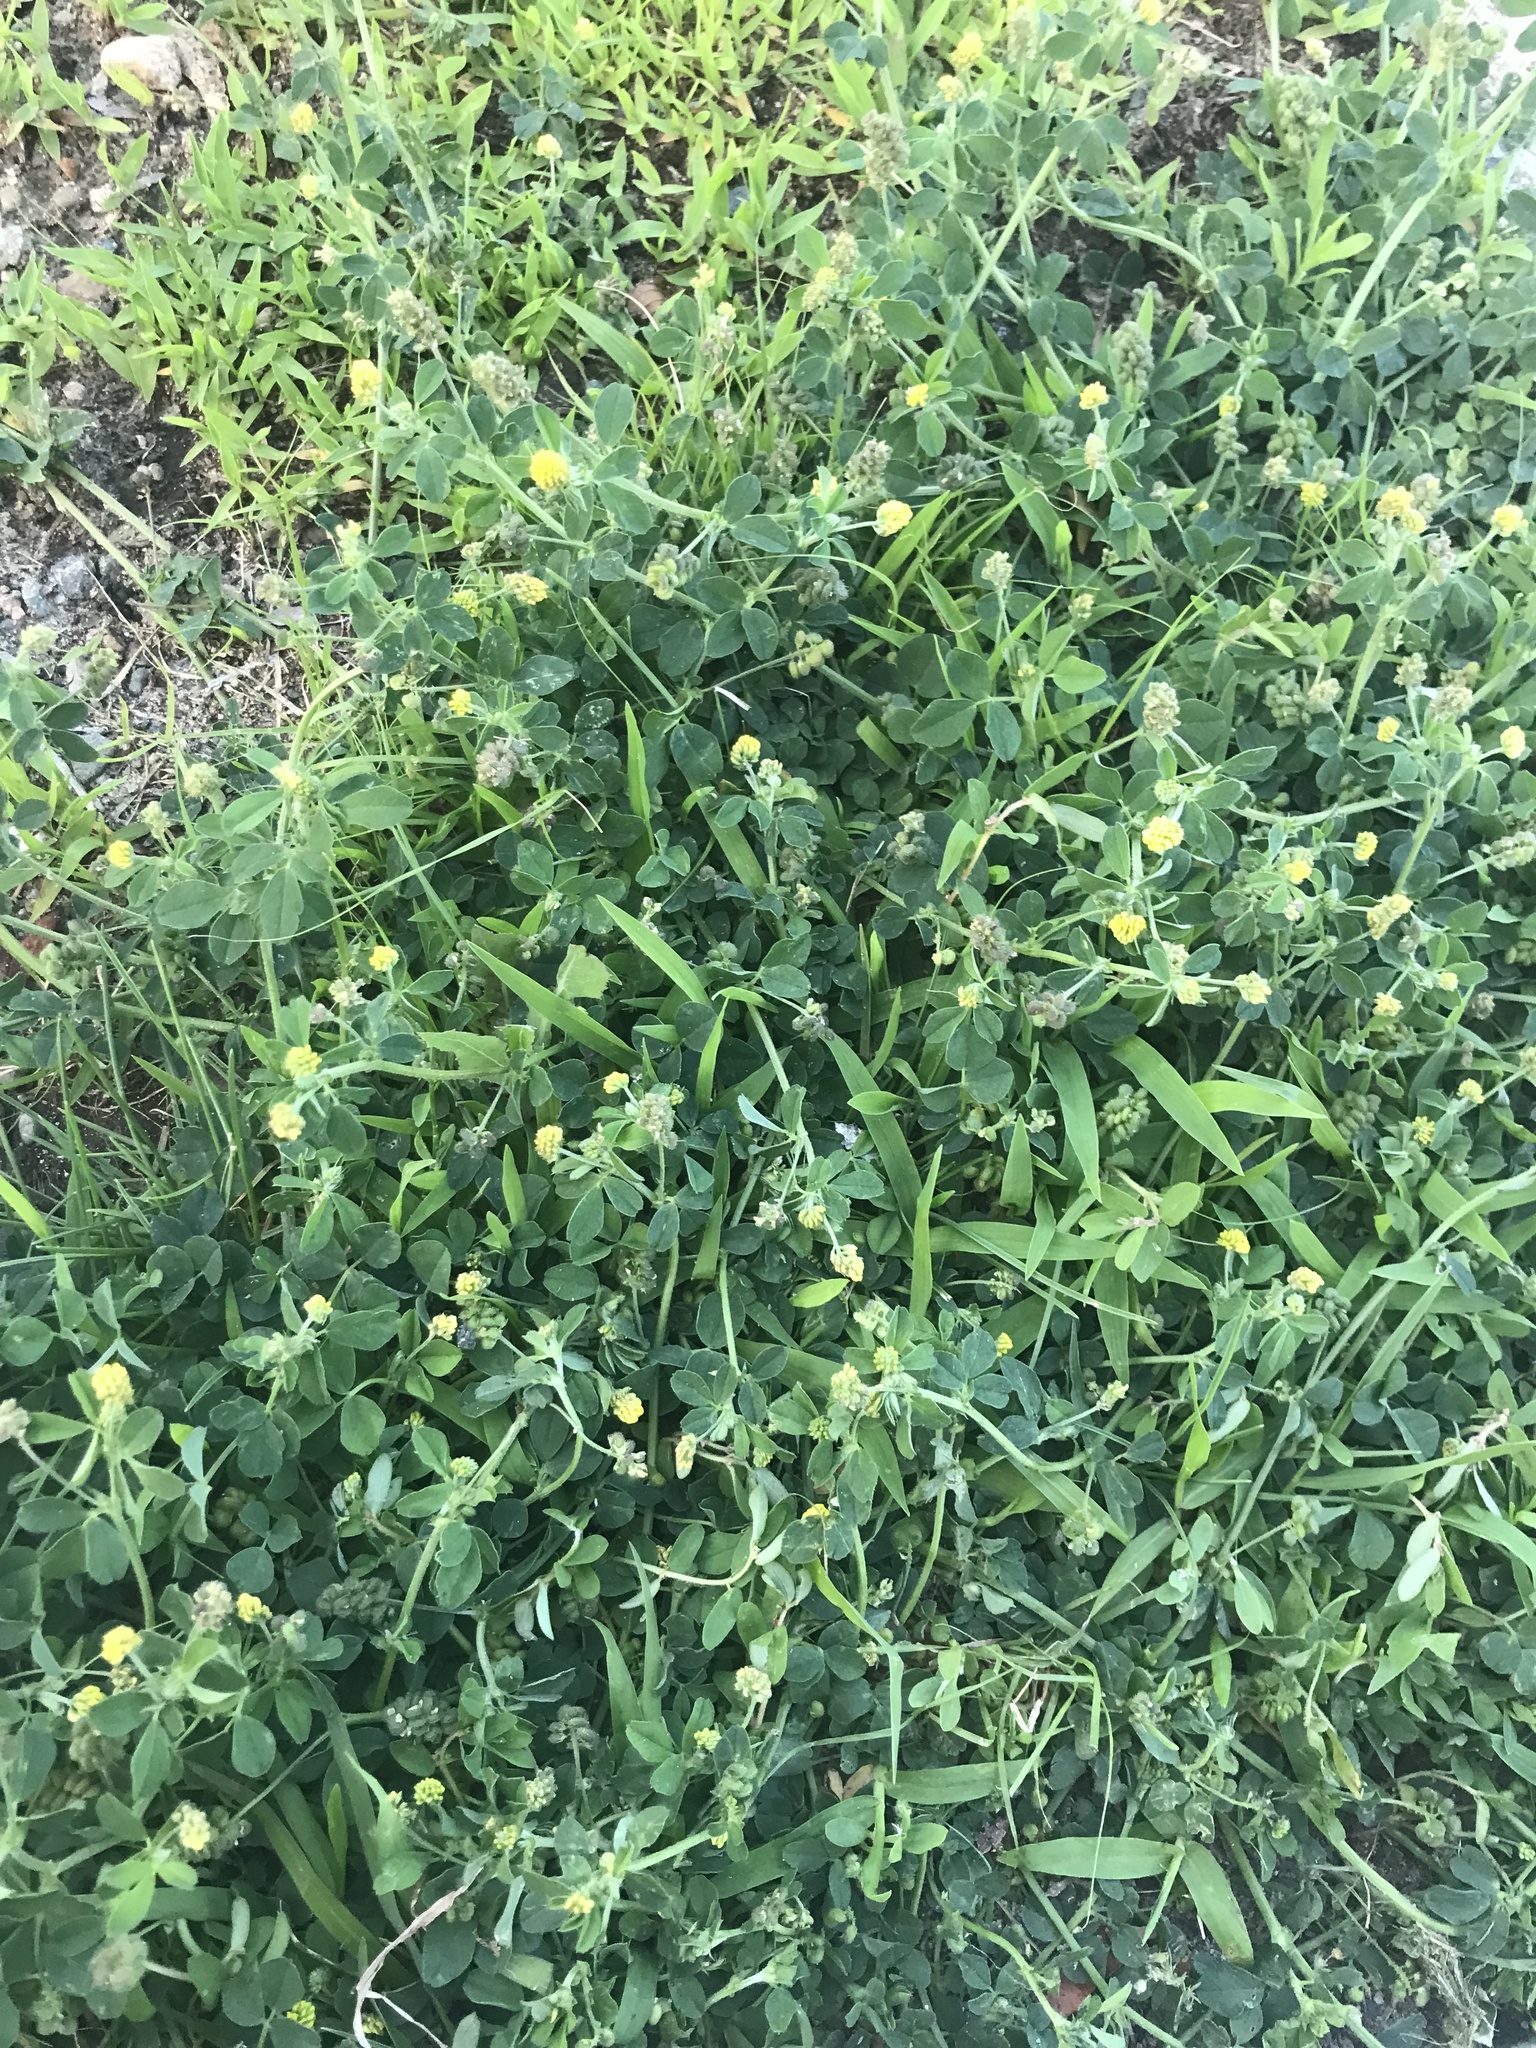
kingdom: Plantae
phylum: Tracheophyta
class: Magnoliopsida
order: Fabales
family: Fabaceae
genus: Medicago
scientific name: Medicago lupulina
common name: Black medick
